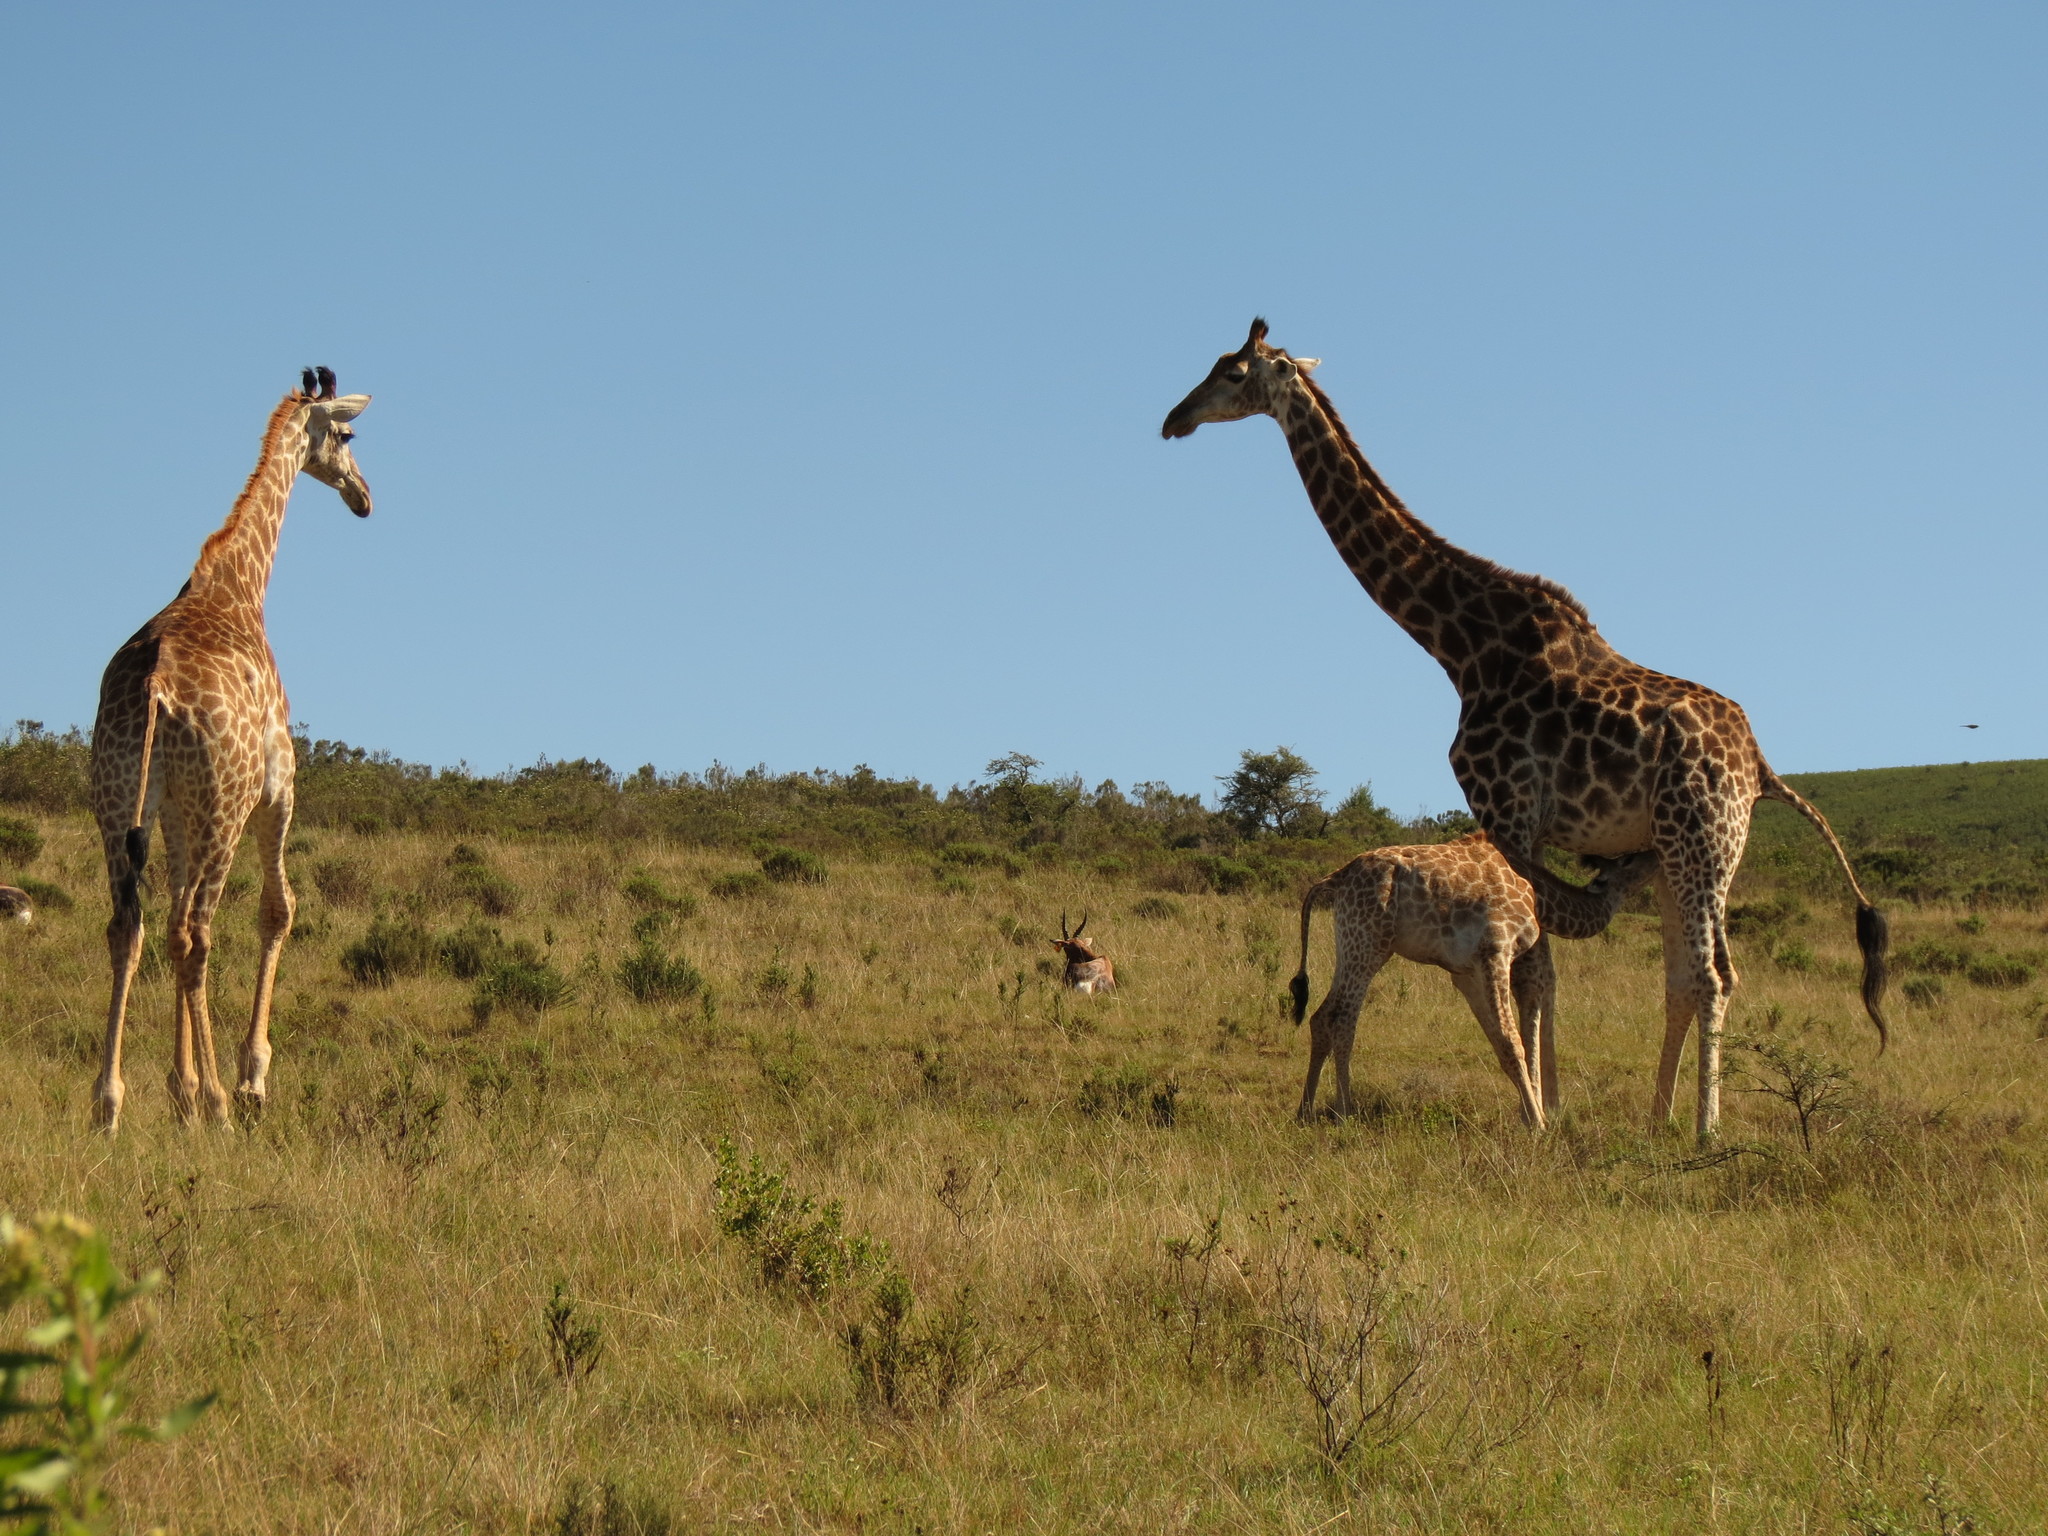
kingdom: Animalia
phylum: Chordata
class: Mammalia
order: Artiodactyla
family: Giraffidae
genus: Giraffa
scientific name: Giraffa giraffa
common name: Southern giraffe
